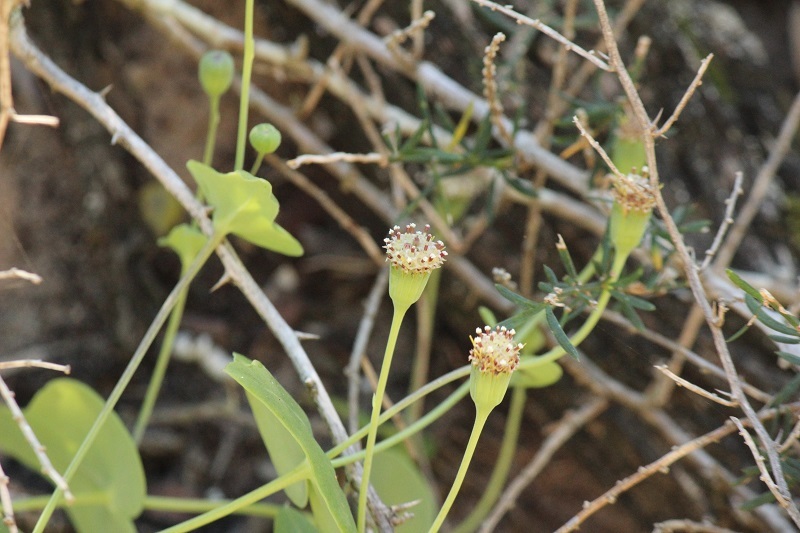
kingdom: Plantae
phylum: Tracheophyta
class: Magnoliopsida
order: Asterales
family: Asteraceae
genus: Othonna
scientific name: Othonna undulosa
